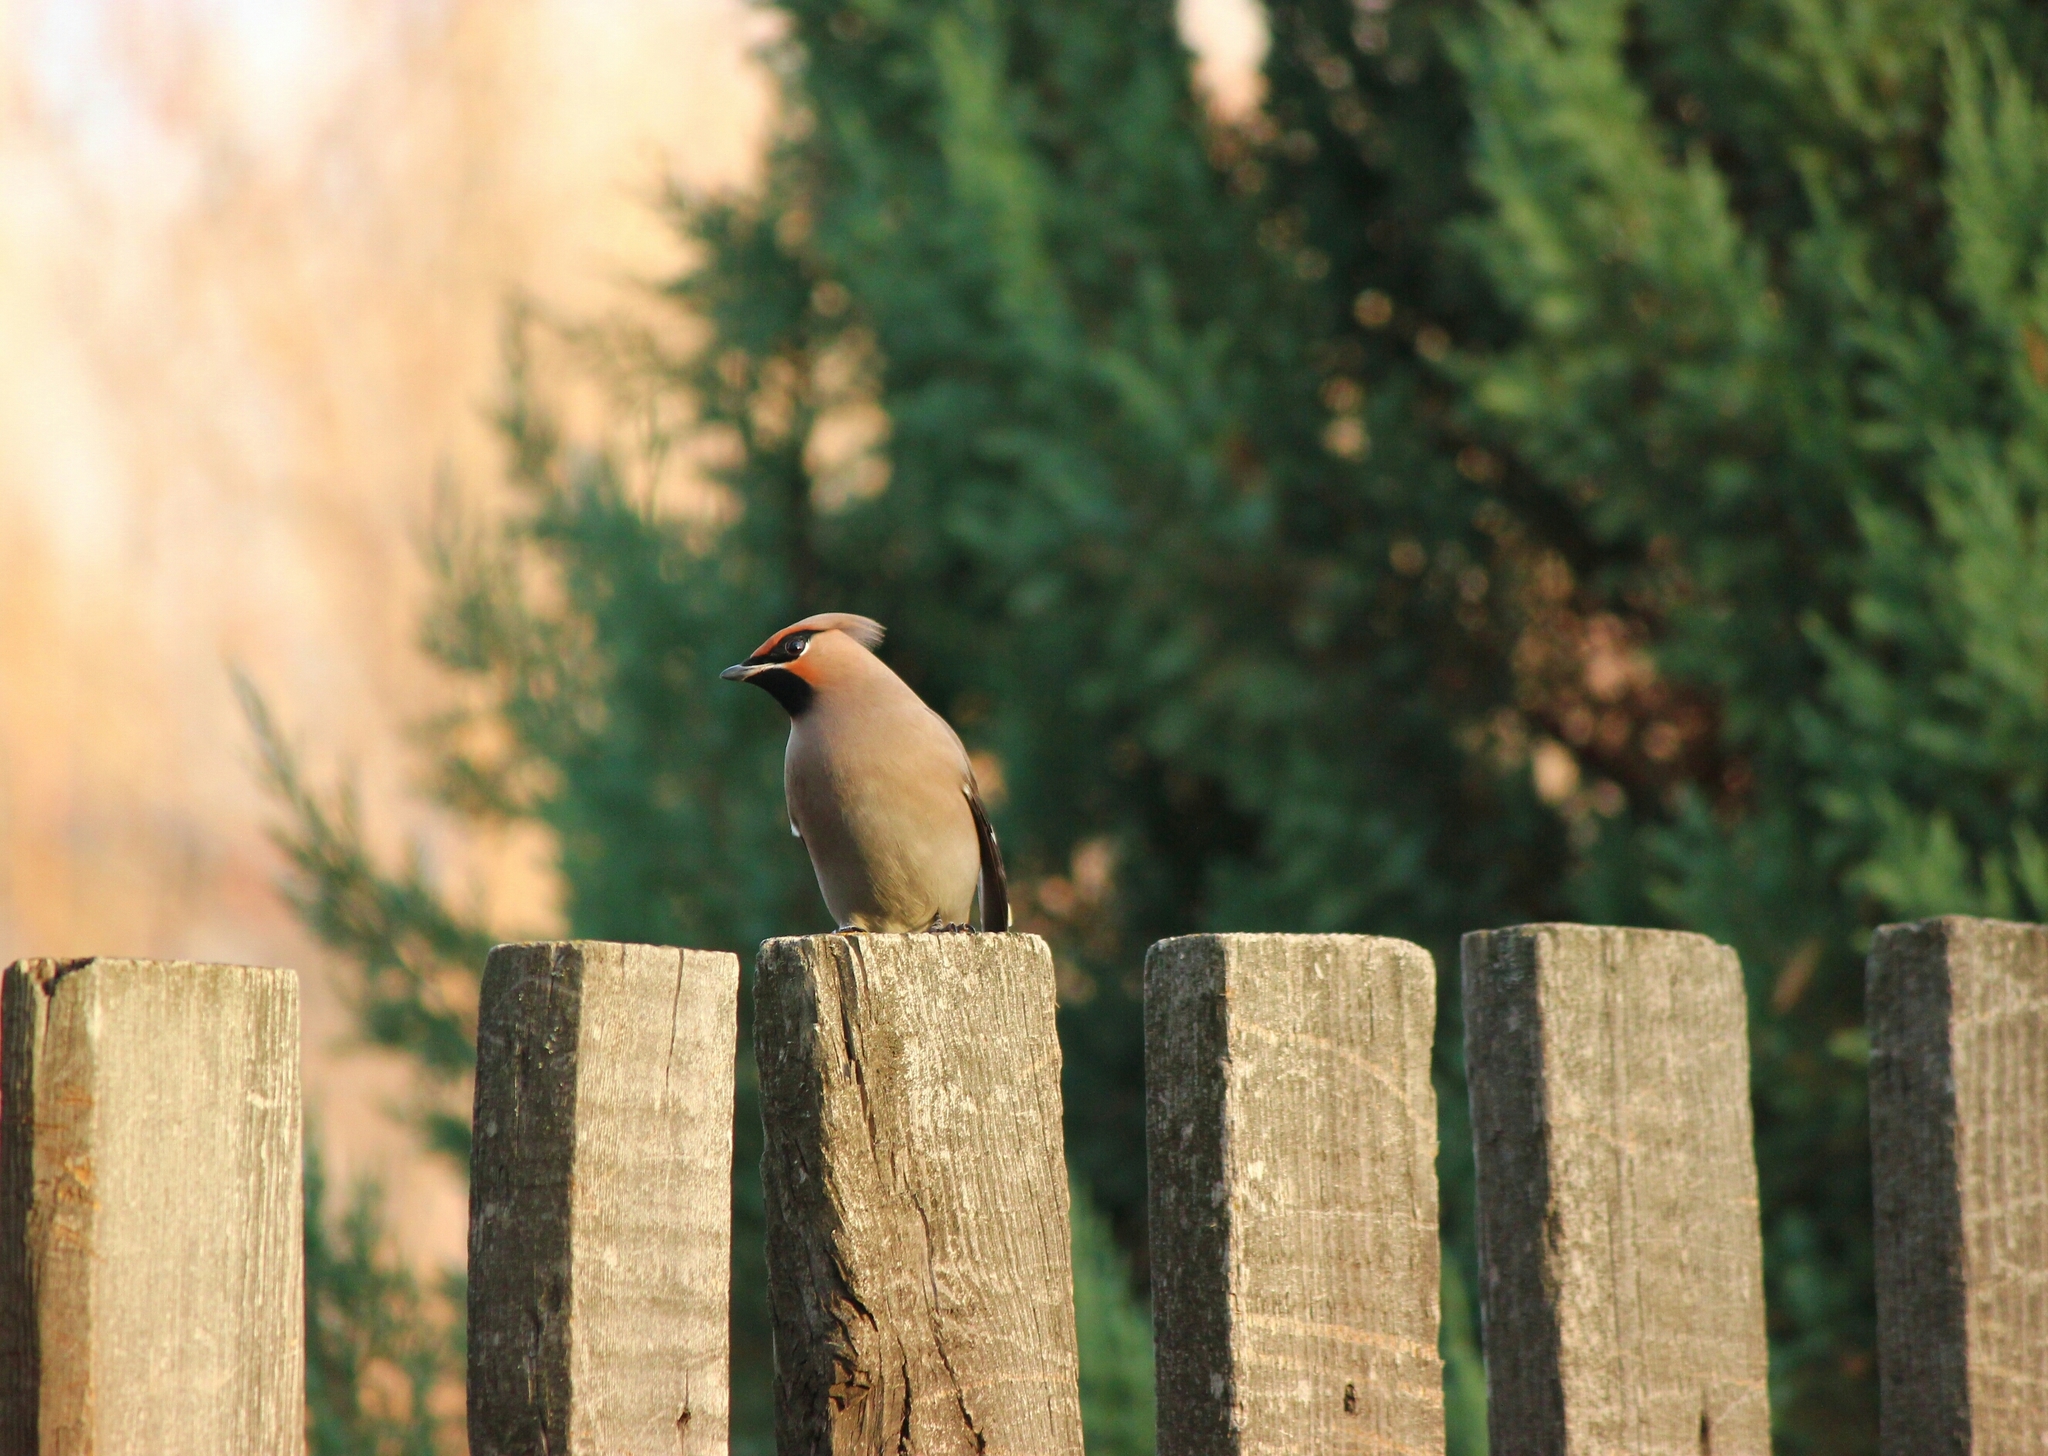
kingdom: Animalia
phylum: Chordata
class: Aves
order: Passeriformes
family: Bombycillidae
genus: Bombycilla
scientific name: Bombycilla garrulus
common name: Bohemian waxwing
